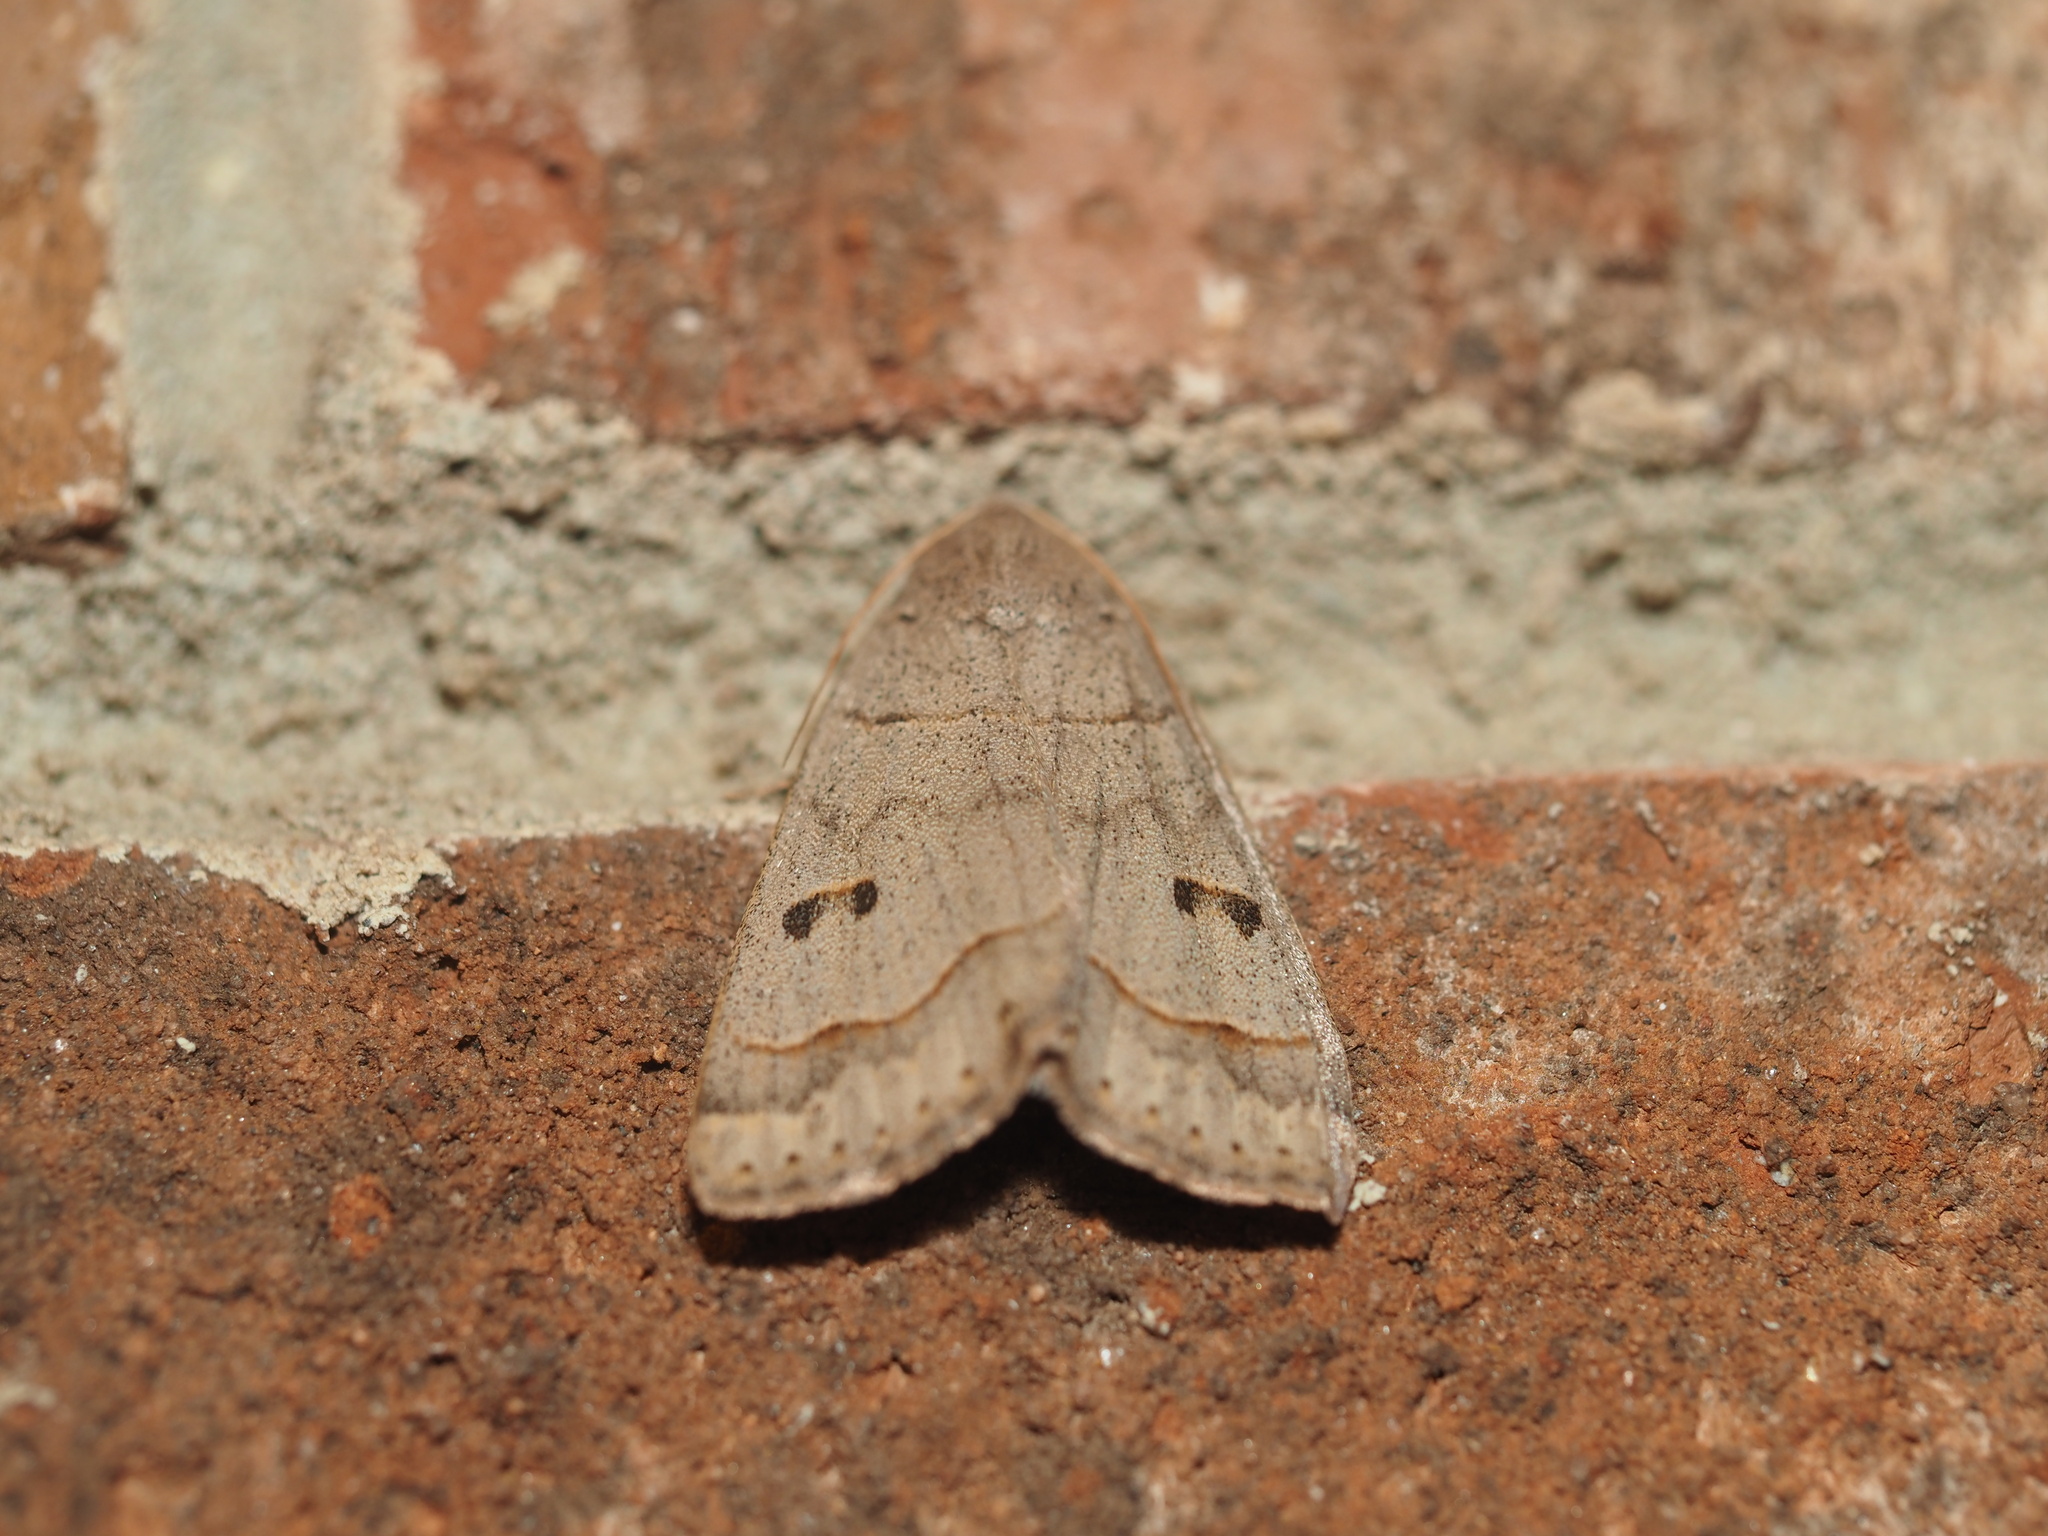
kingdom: Animalia
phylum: Arthropoda
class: Insecta
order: Lepidoptera
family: Erebidae
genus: Phoberia
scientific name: Phoberia atomaris
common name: Common oak moth
